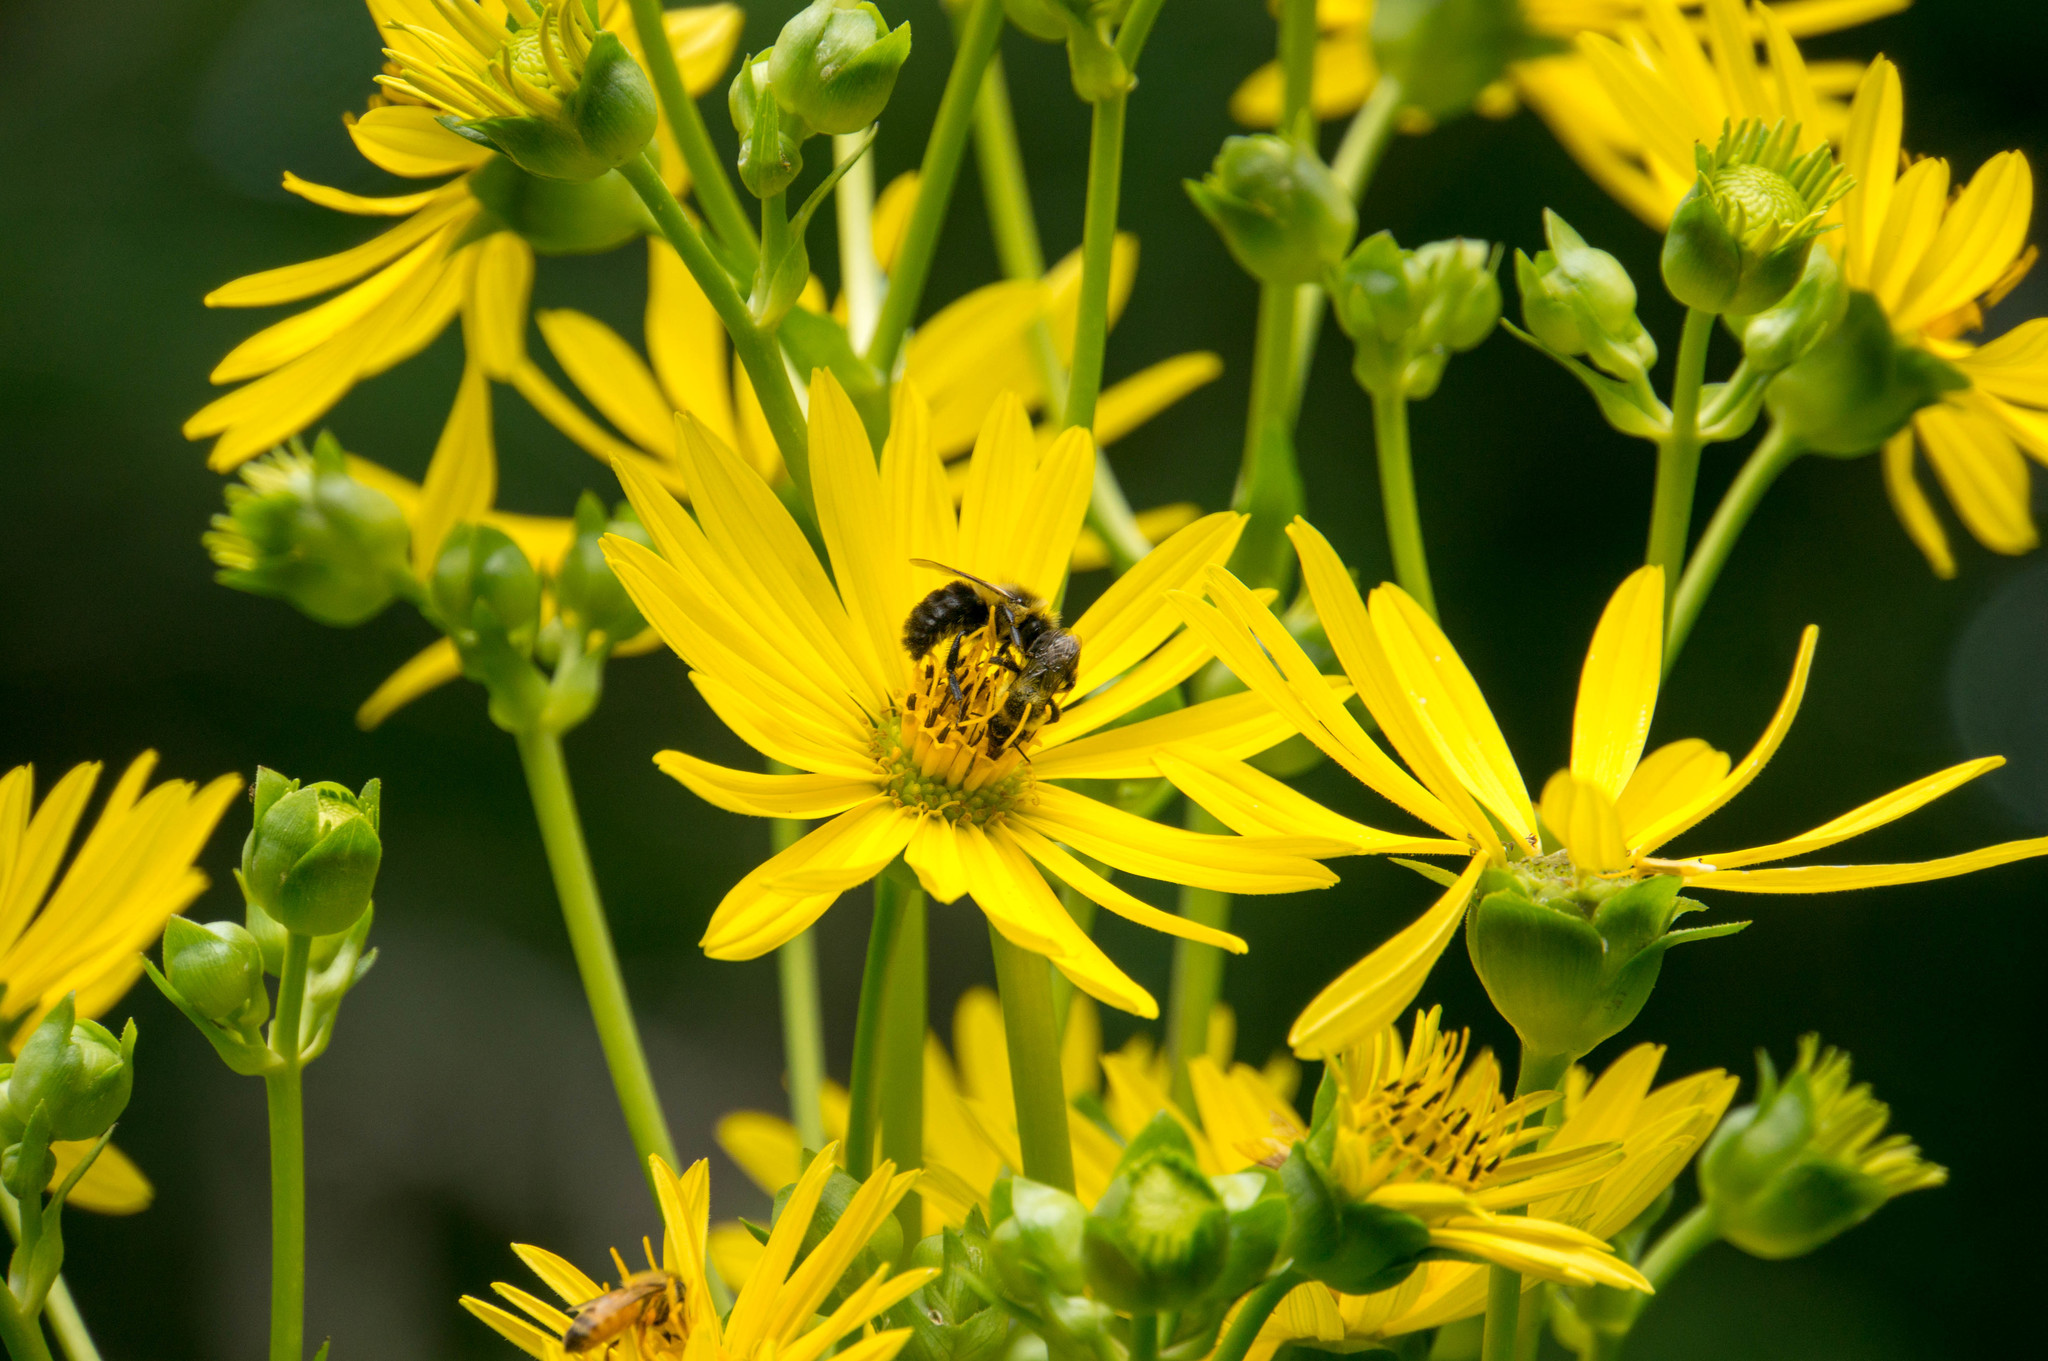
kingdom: Animalia
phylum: Arthropoda
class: Insecta
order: Hymenoptera
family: Apidae
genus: Bombus
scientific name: Bombus impatiens
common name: Common eastern bumble bee
